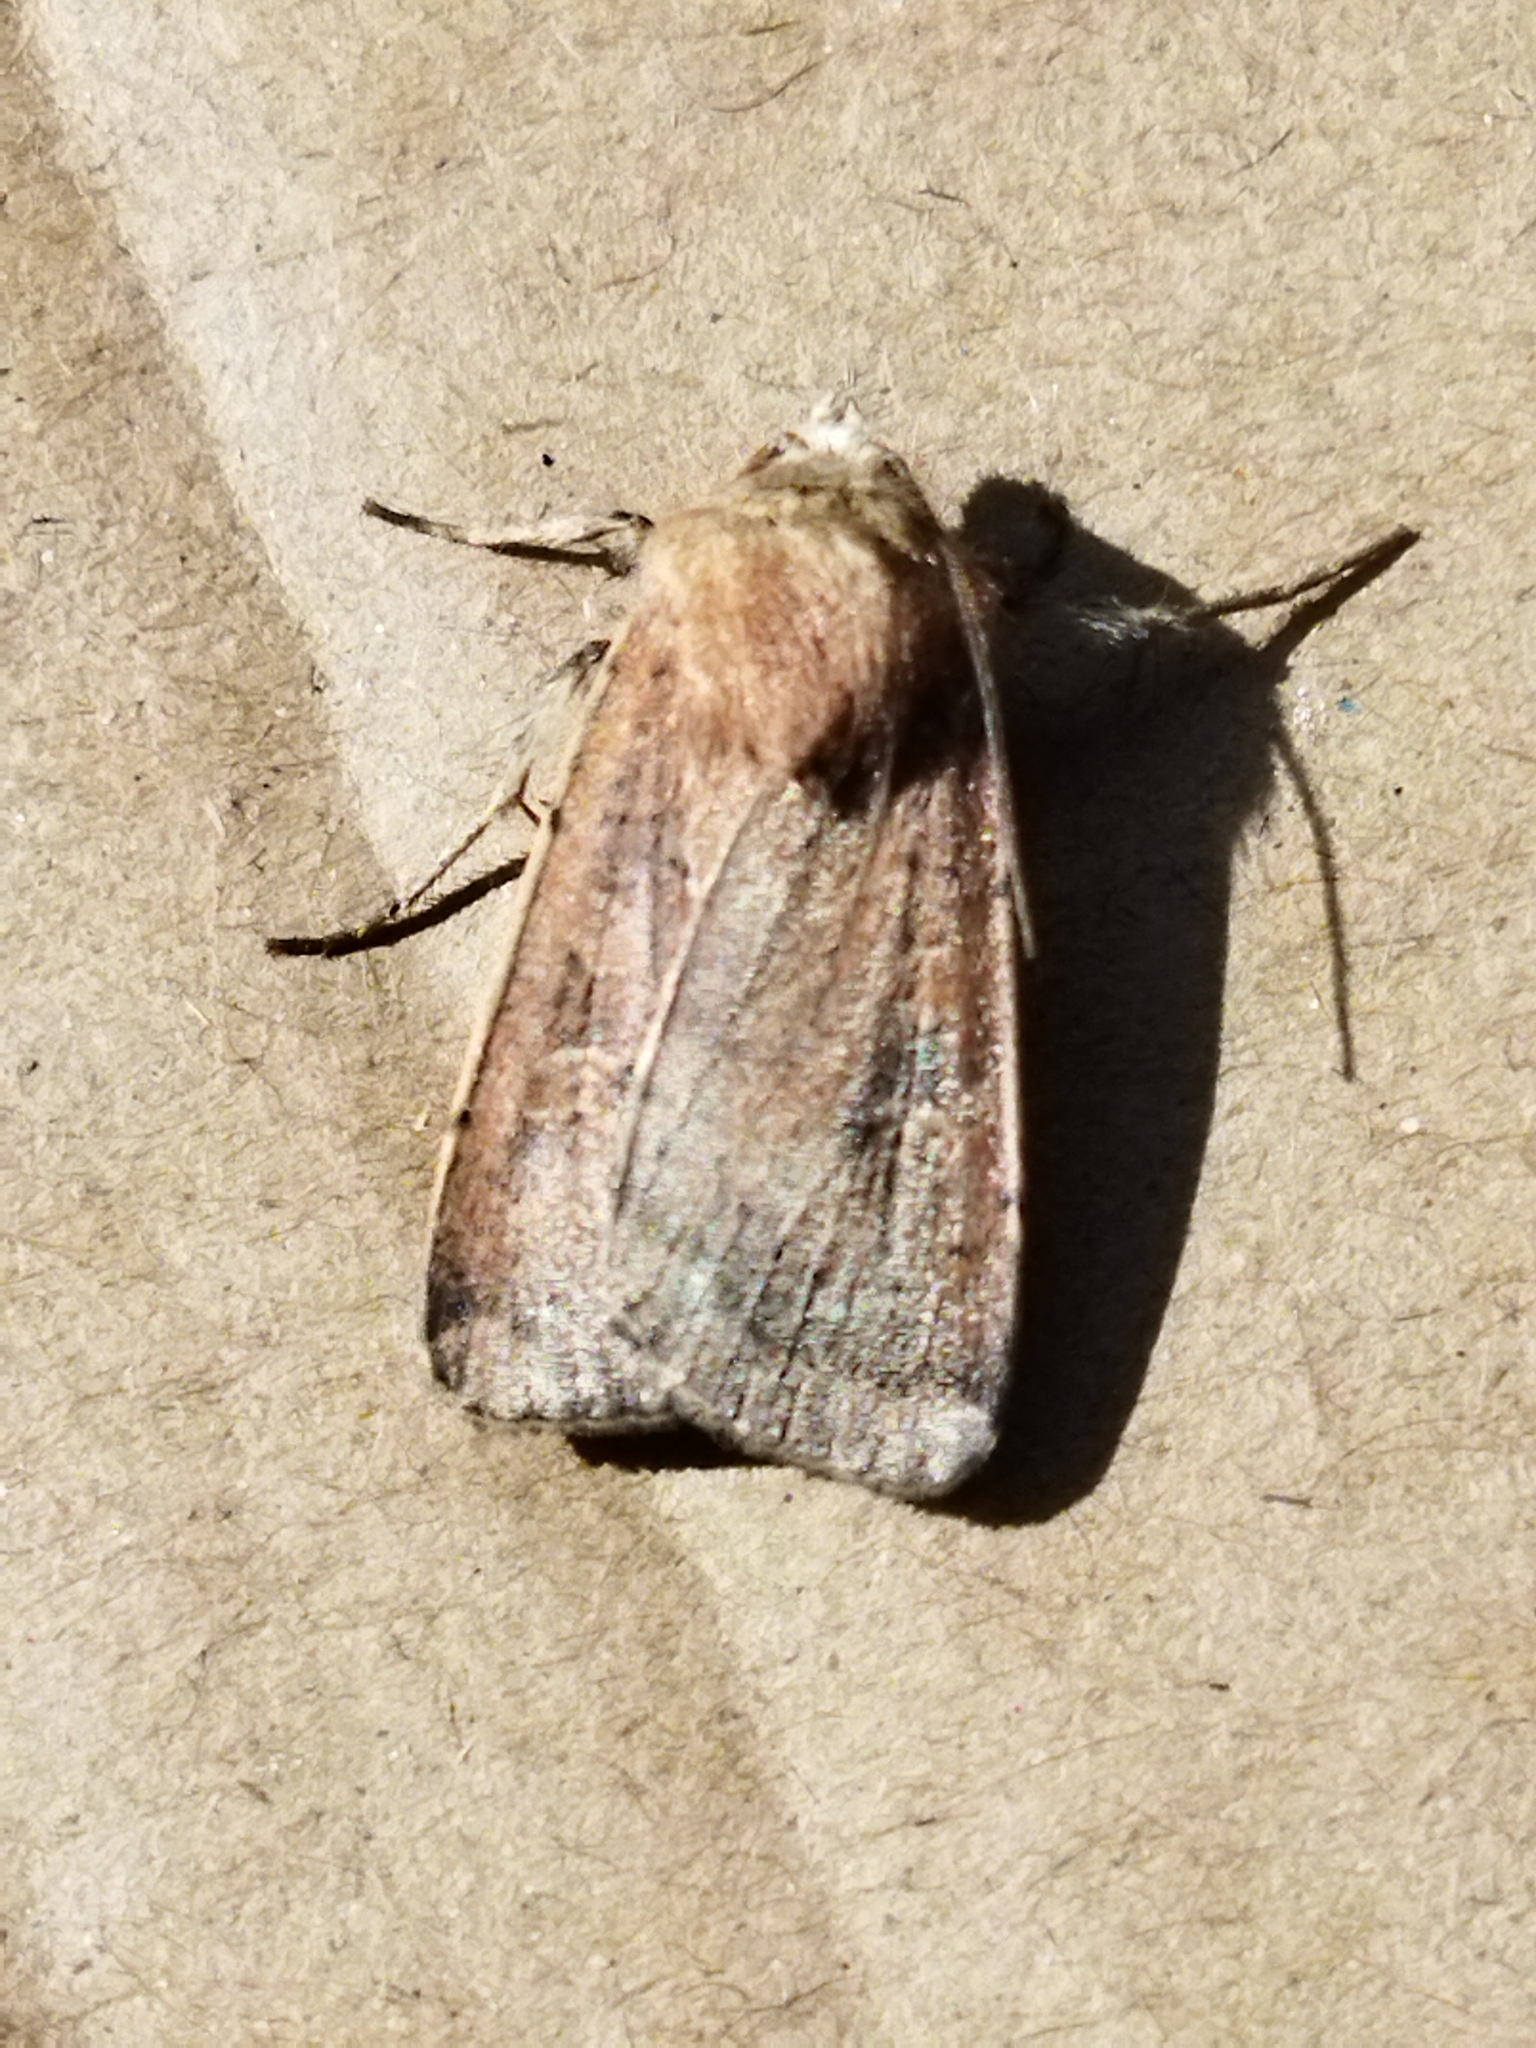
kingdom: Animalia
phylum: Arthropoda
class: Insecta
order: Lepidoptera
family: Noctuidae
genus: Xestia
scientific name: Xestia xanthographa
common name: Square-spot rustic
